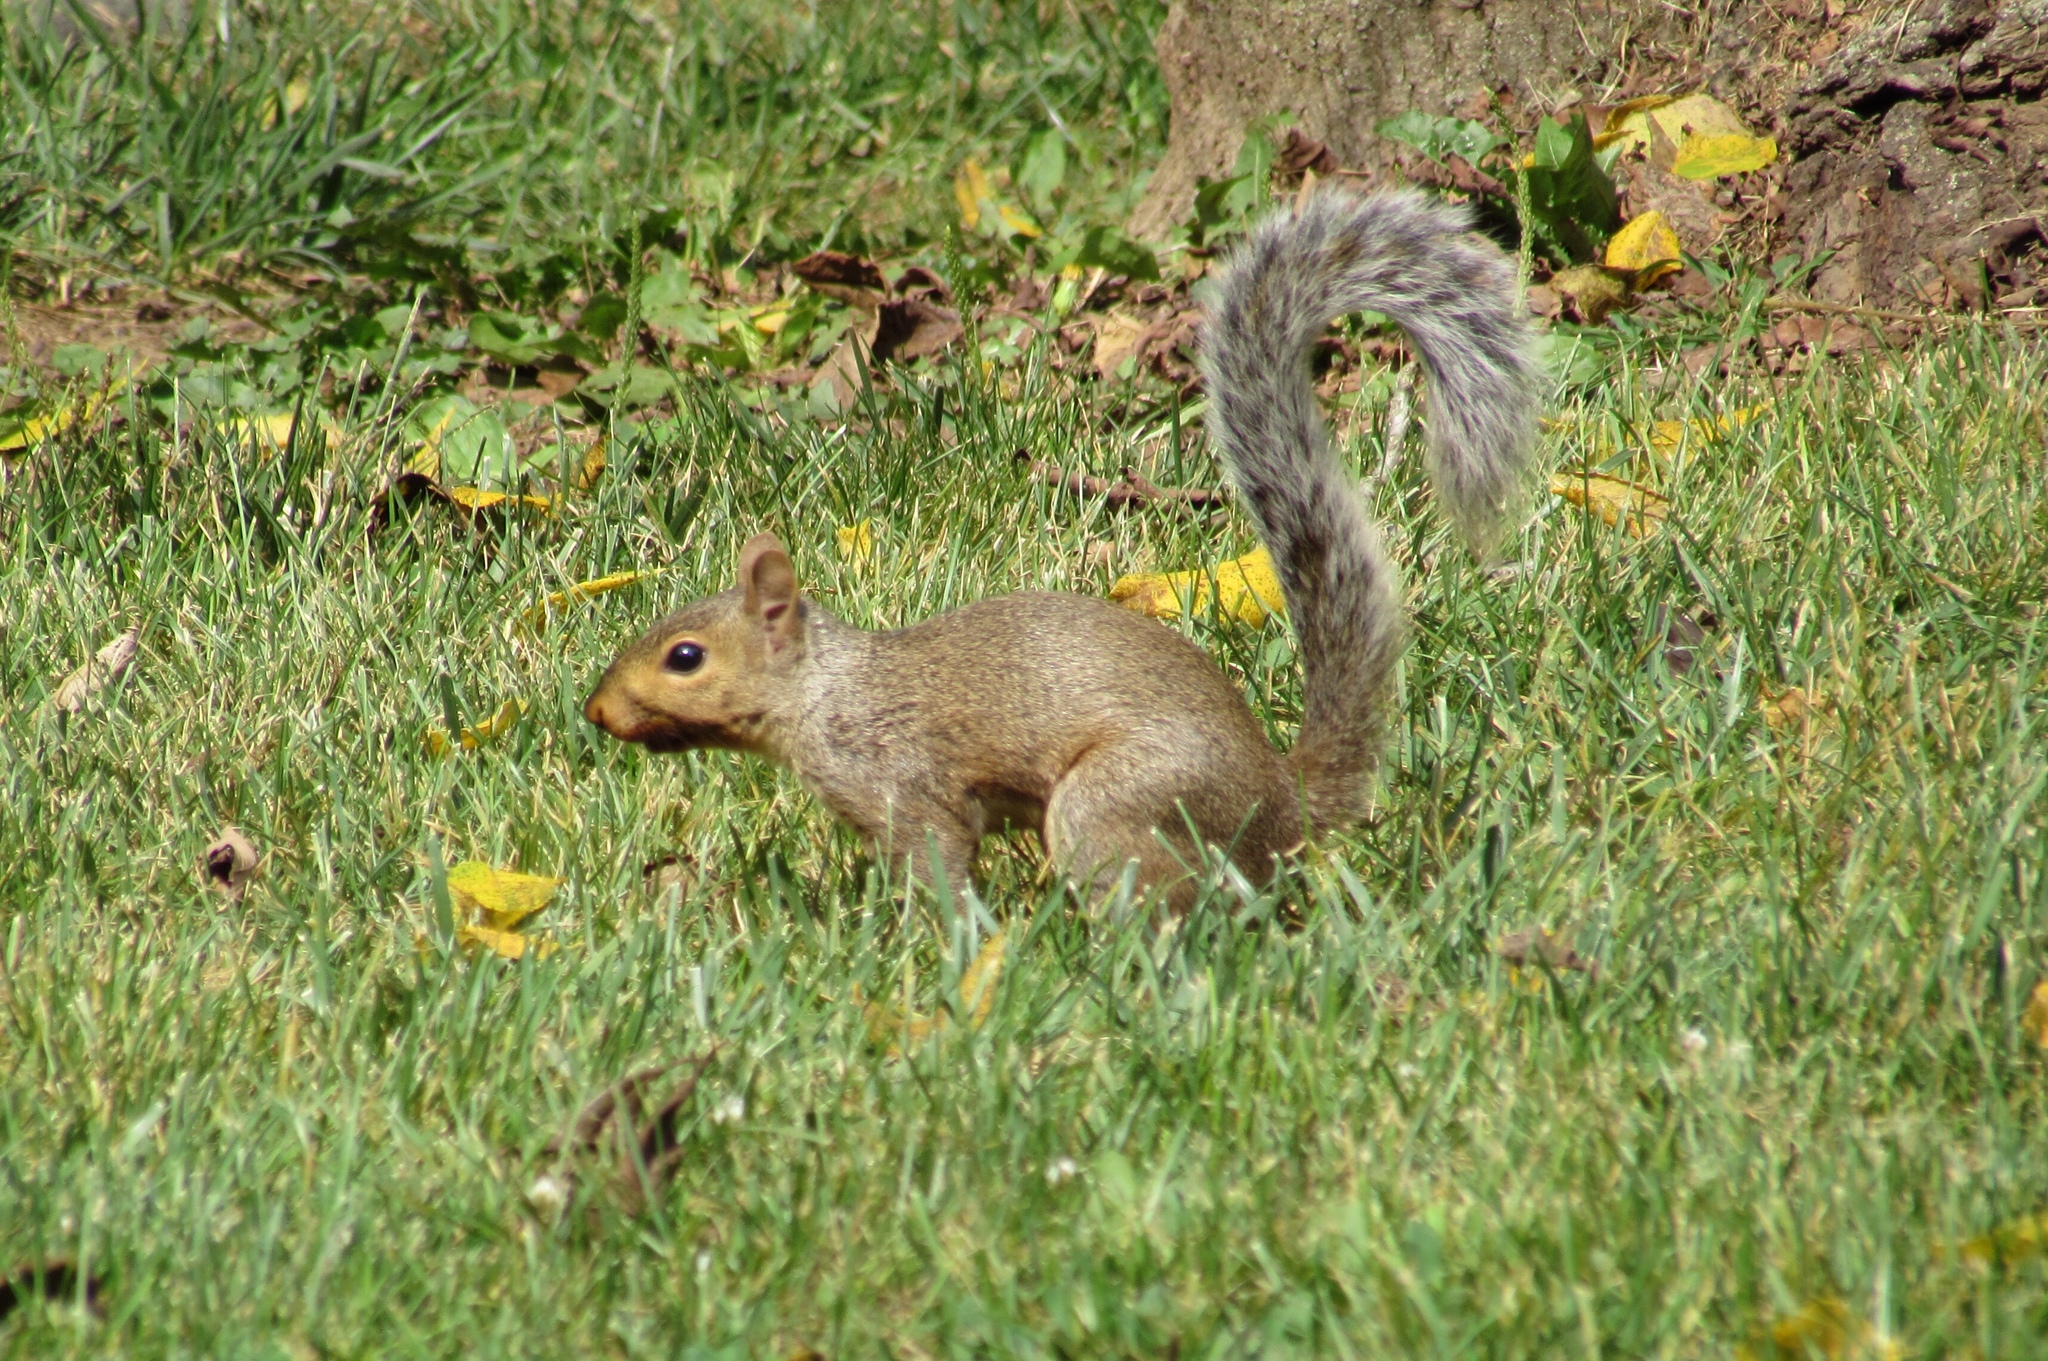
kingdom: Animalia
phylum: Chordata
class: Mammalia
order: Rodentia
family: Sciuridae
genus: Sciurus
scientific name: Sciurus carolinensis
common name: Eastern gray squirrel
